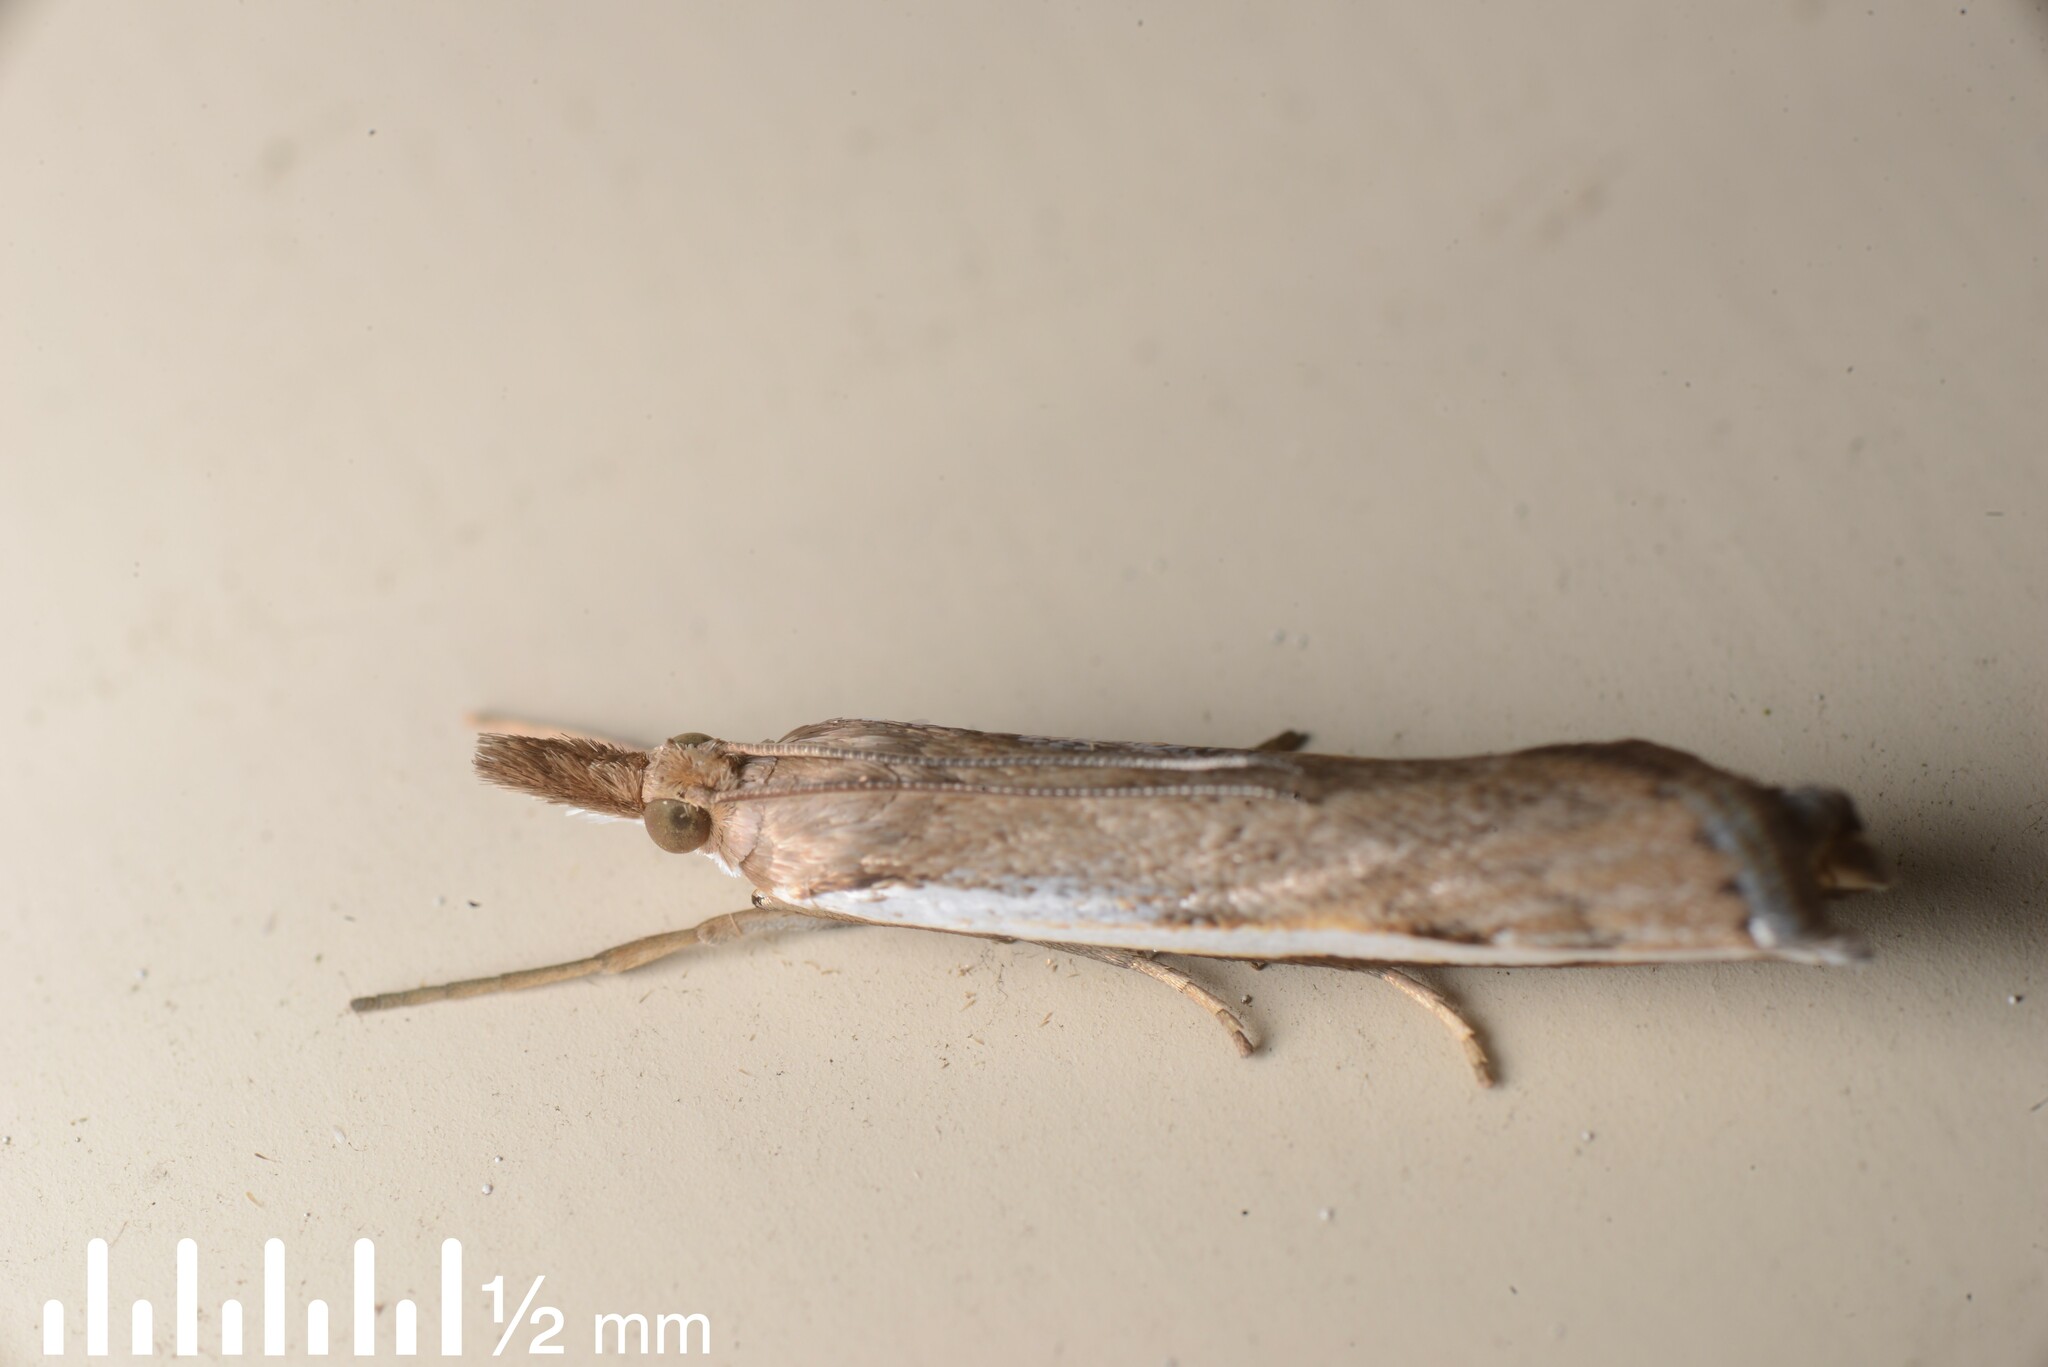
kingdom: Animalia
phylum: Arthropoda
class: Insecta
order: Lepidoptera
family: Crambidae
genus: Orocrambus
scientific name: Orocrambus flexuosellus
